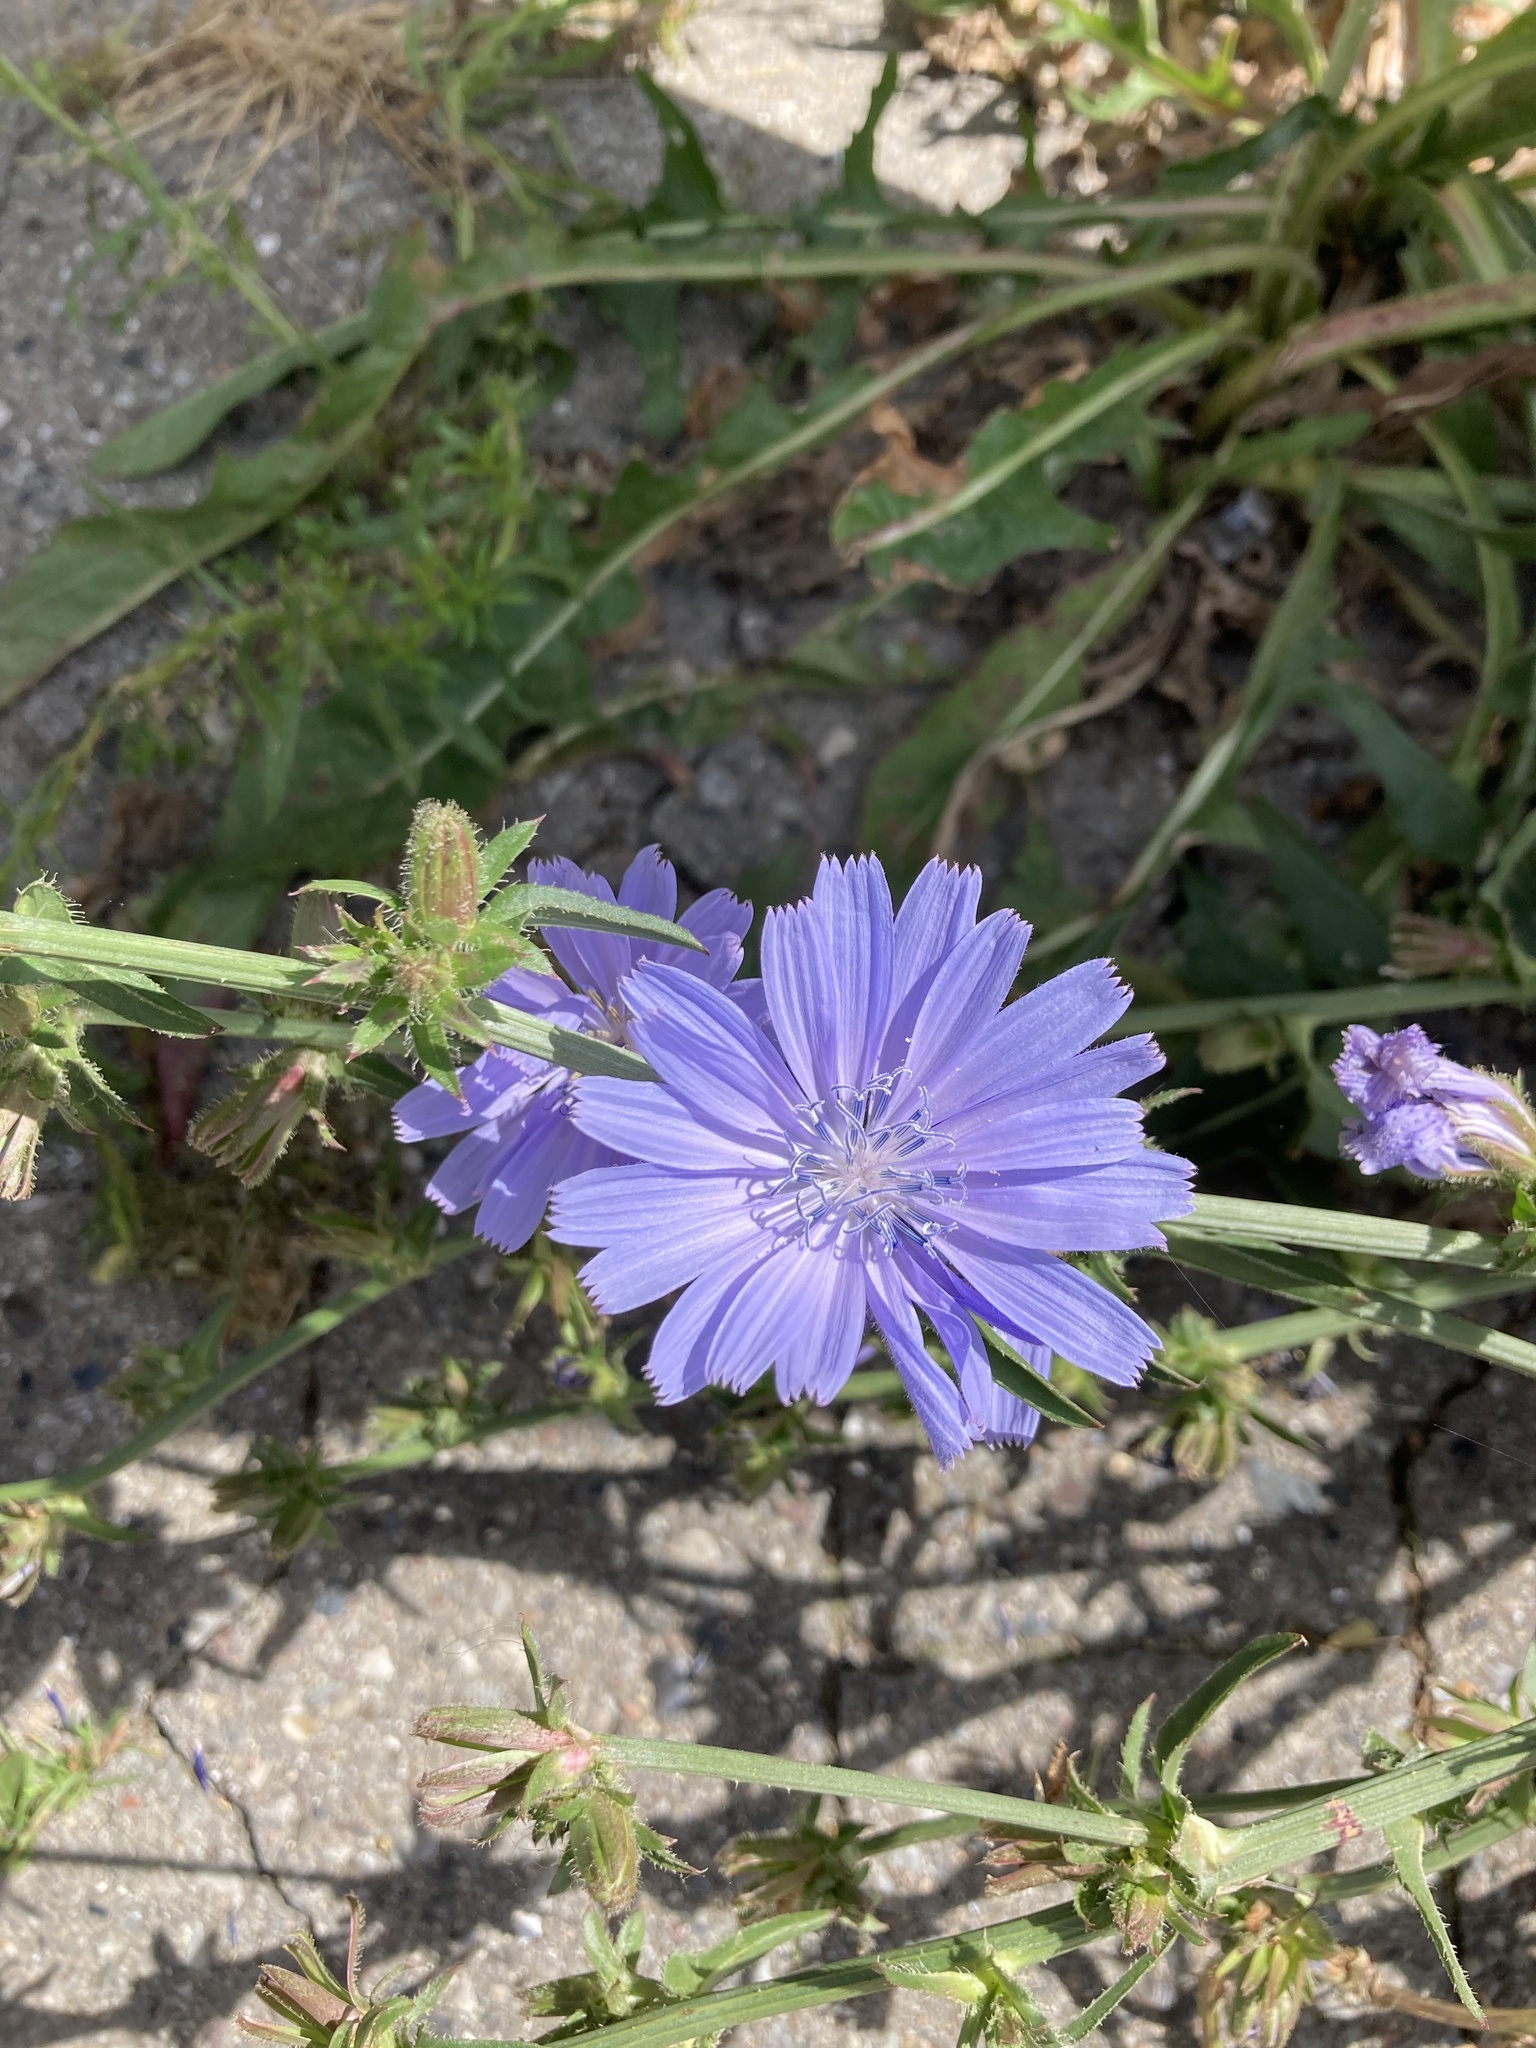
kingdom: Plantae
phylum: Tracheophyta
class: Magnoliopsida
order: Asterales
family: Asteraceae
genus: Cichorium
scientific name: Cichorium intybus
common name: Chicory
